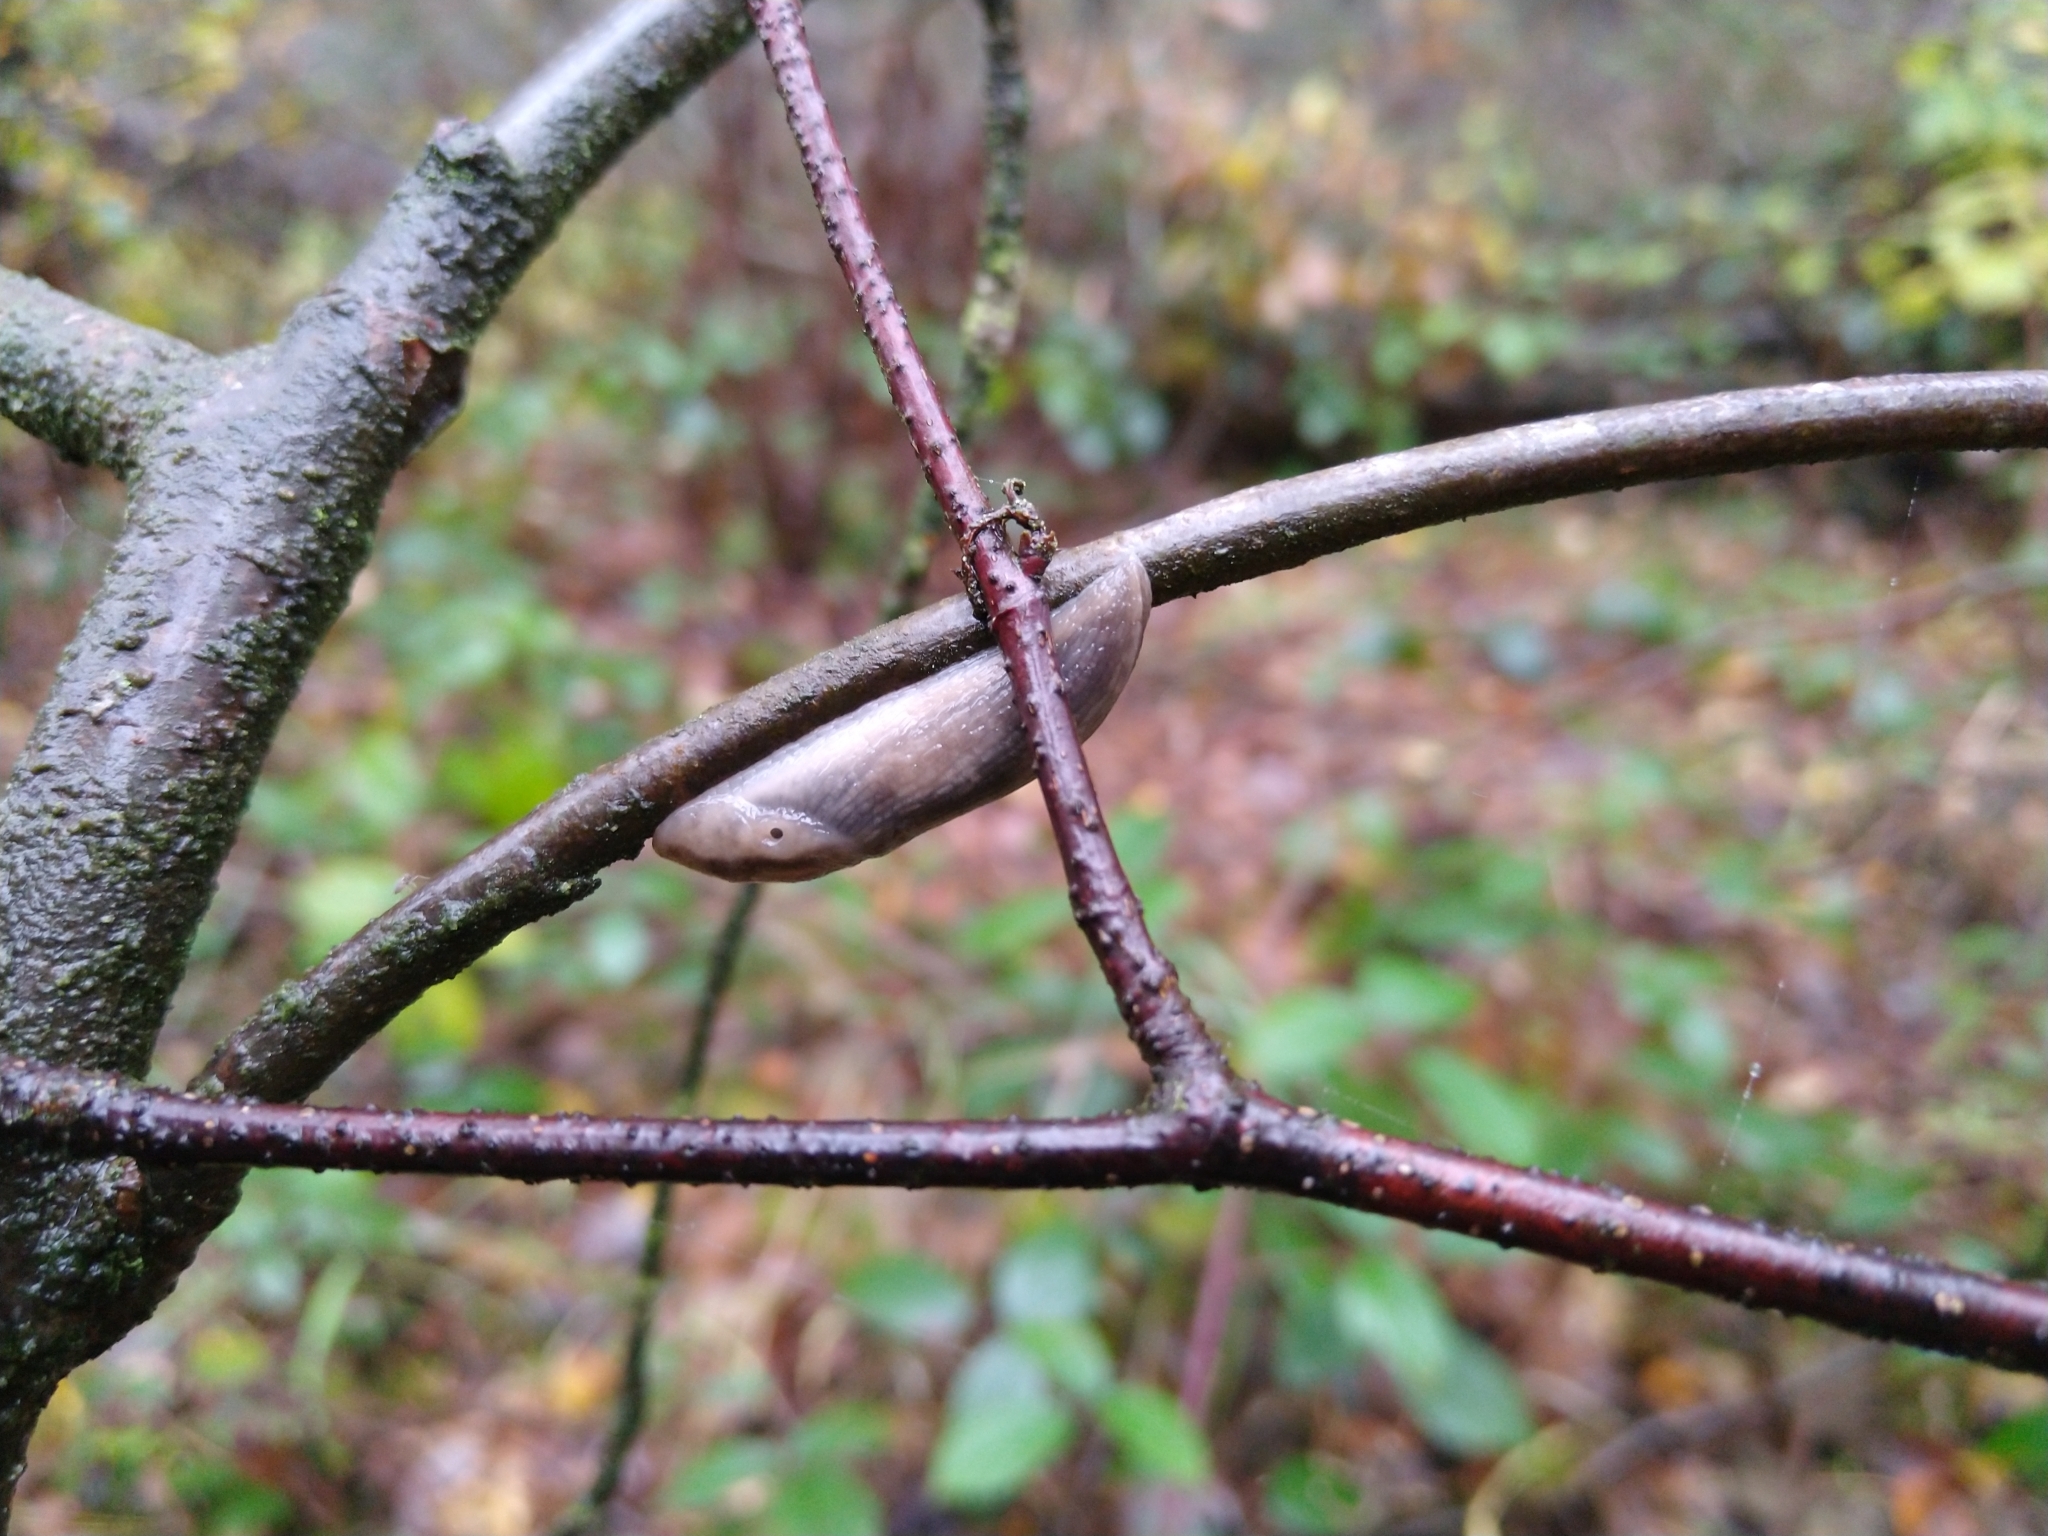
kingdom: Animalia
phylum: Mollusca
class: Gastropoda
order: Stylommatophora
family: Limacidae
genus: Lehmannia
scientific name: Lehmannia marginata
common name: Tree slug
